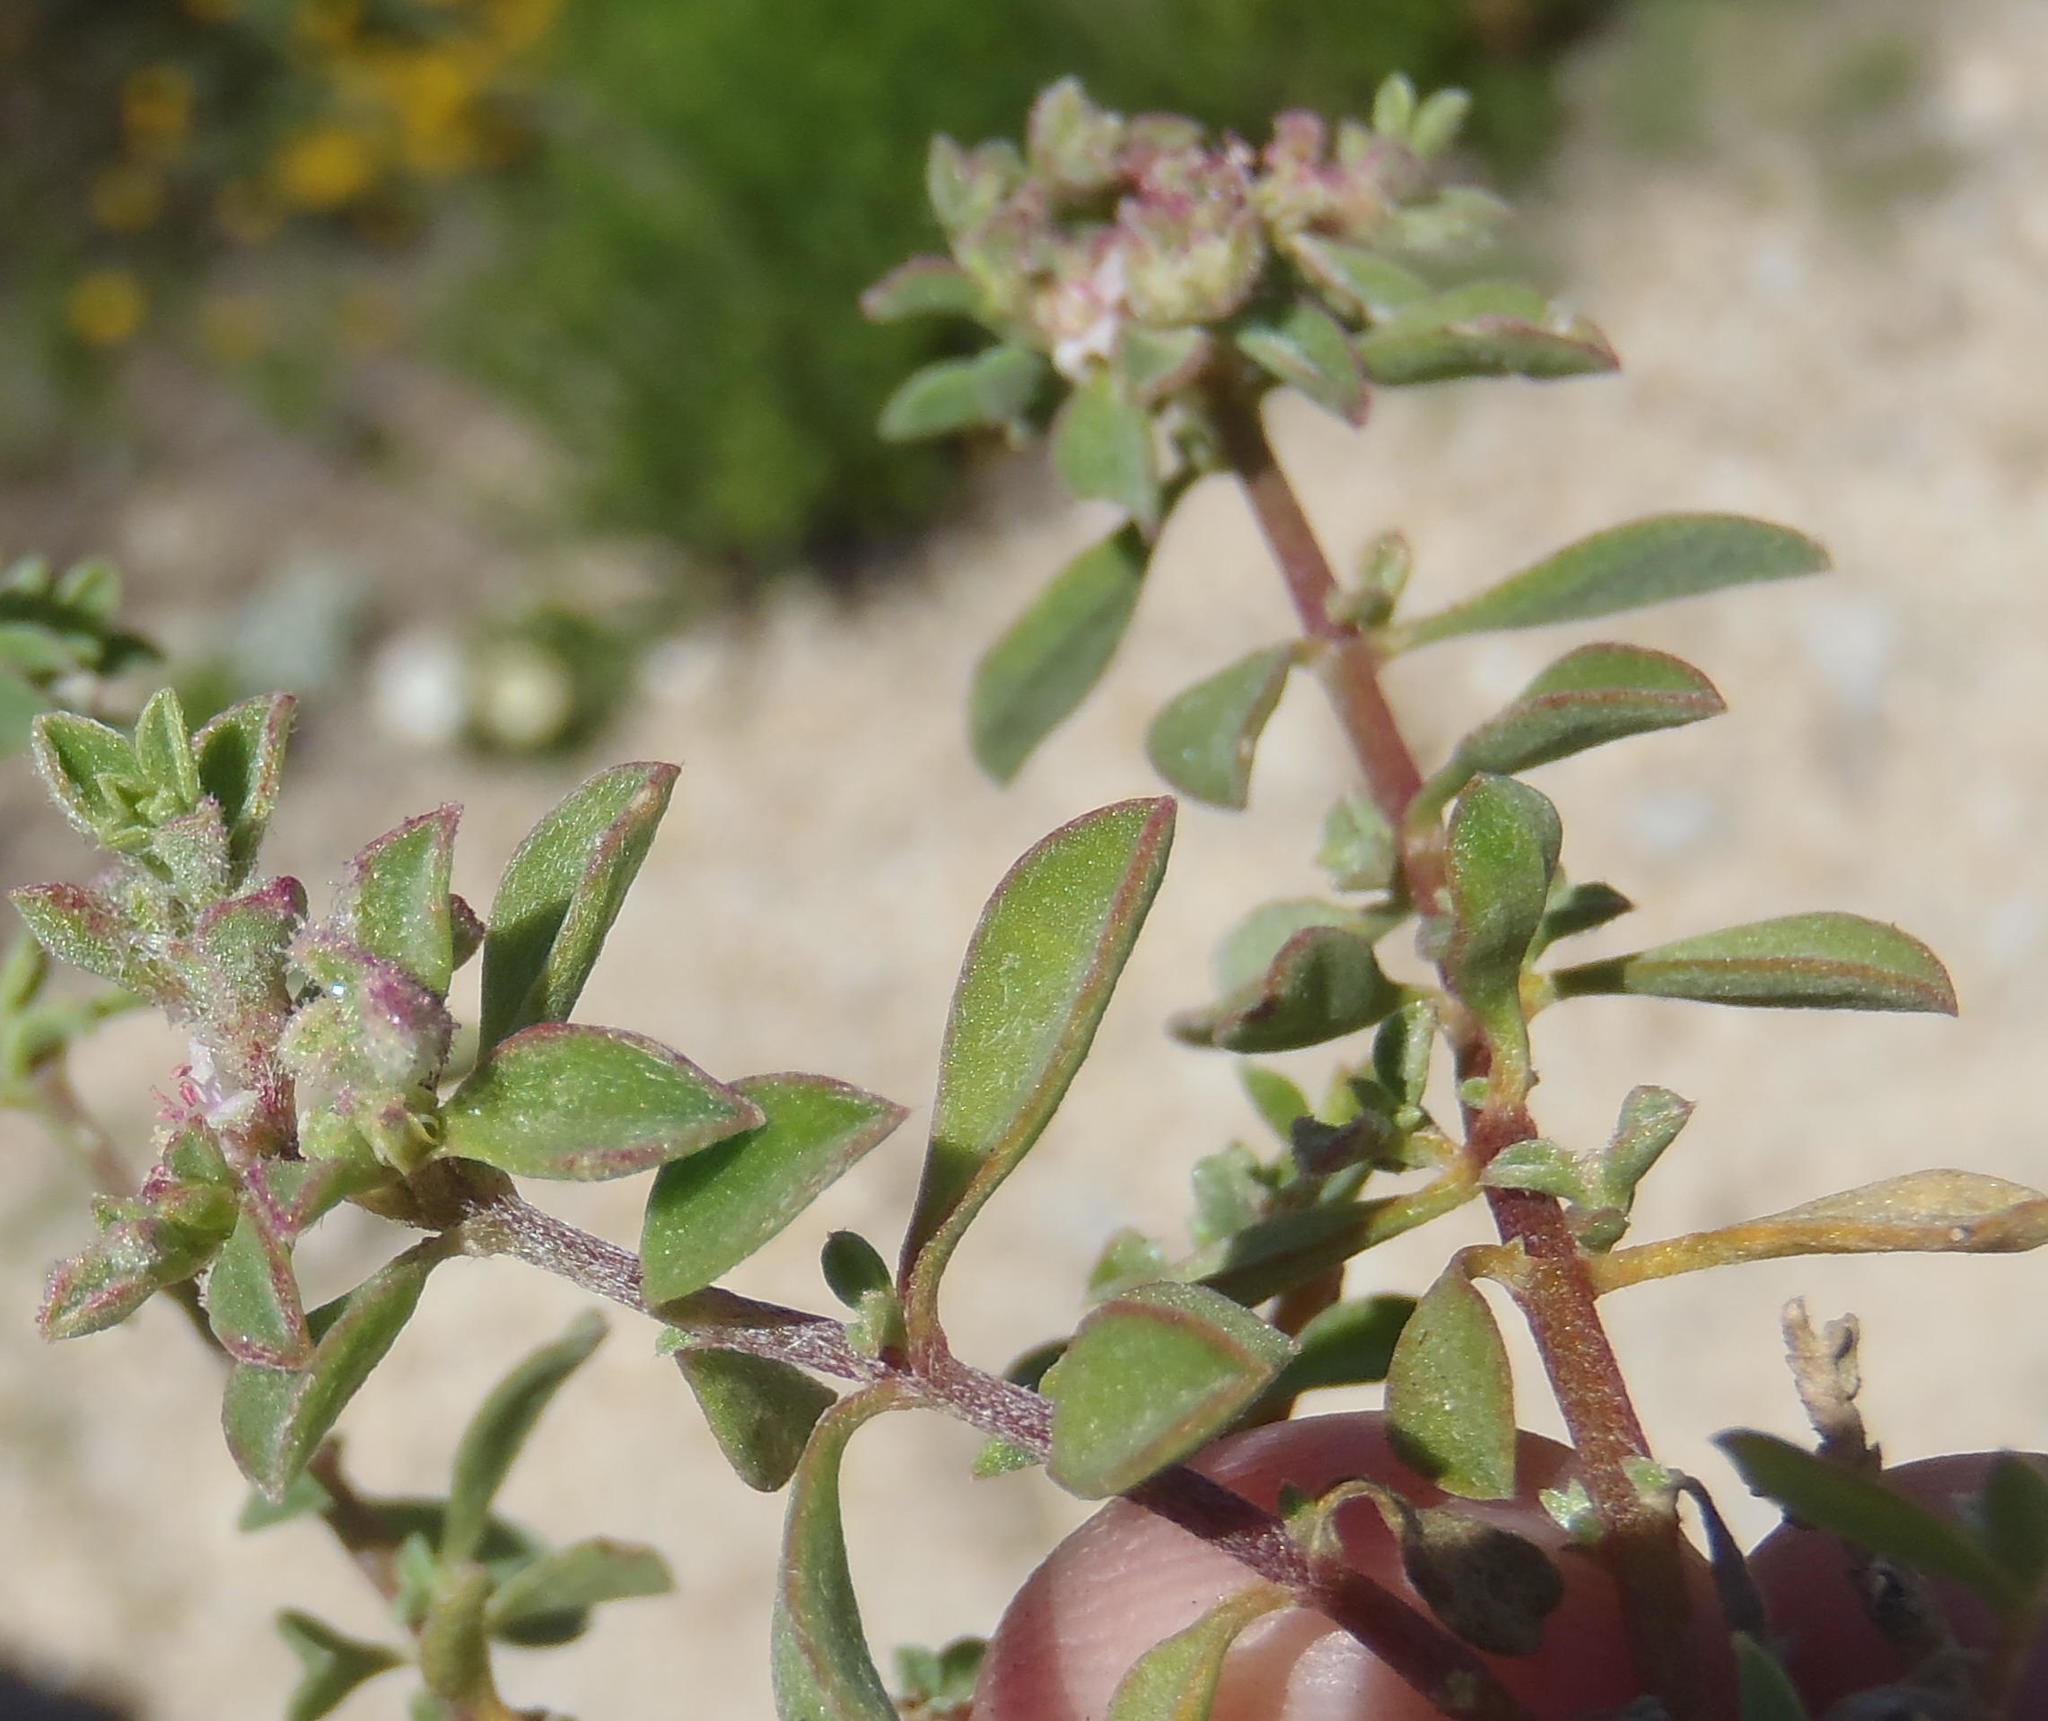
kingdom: Plantae
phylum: Tracheophyta
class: Magnoliopsida
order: Caryophyllales
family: Aizoaceae
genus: Aizoon
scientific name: Aizoon herniariifolium
